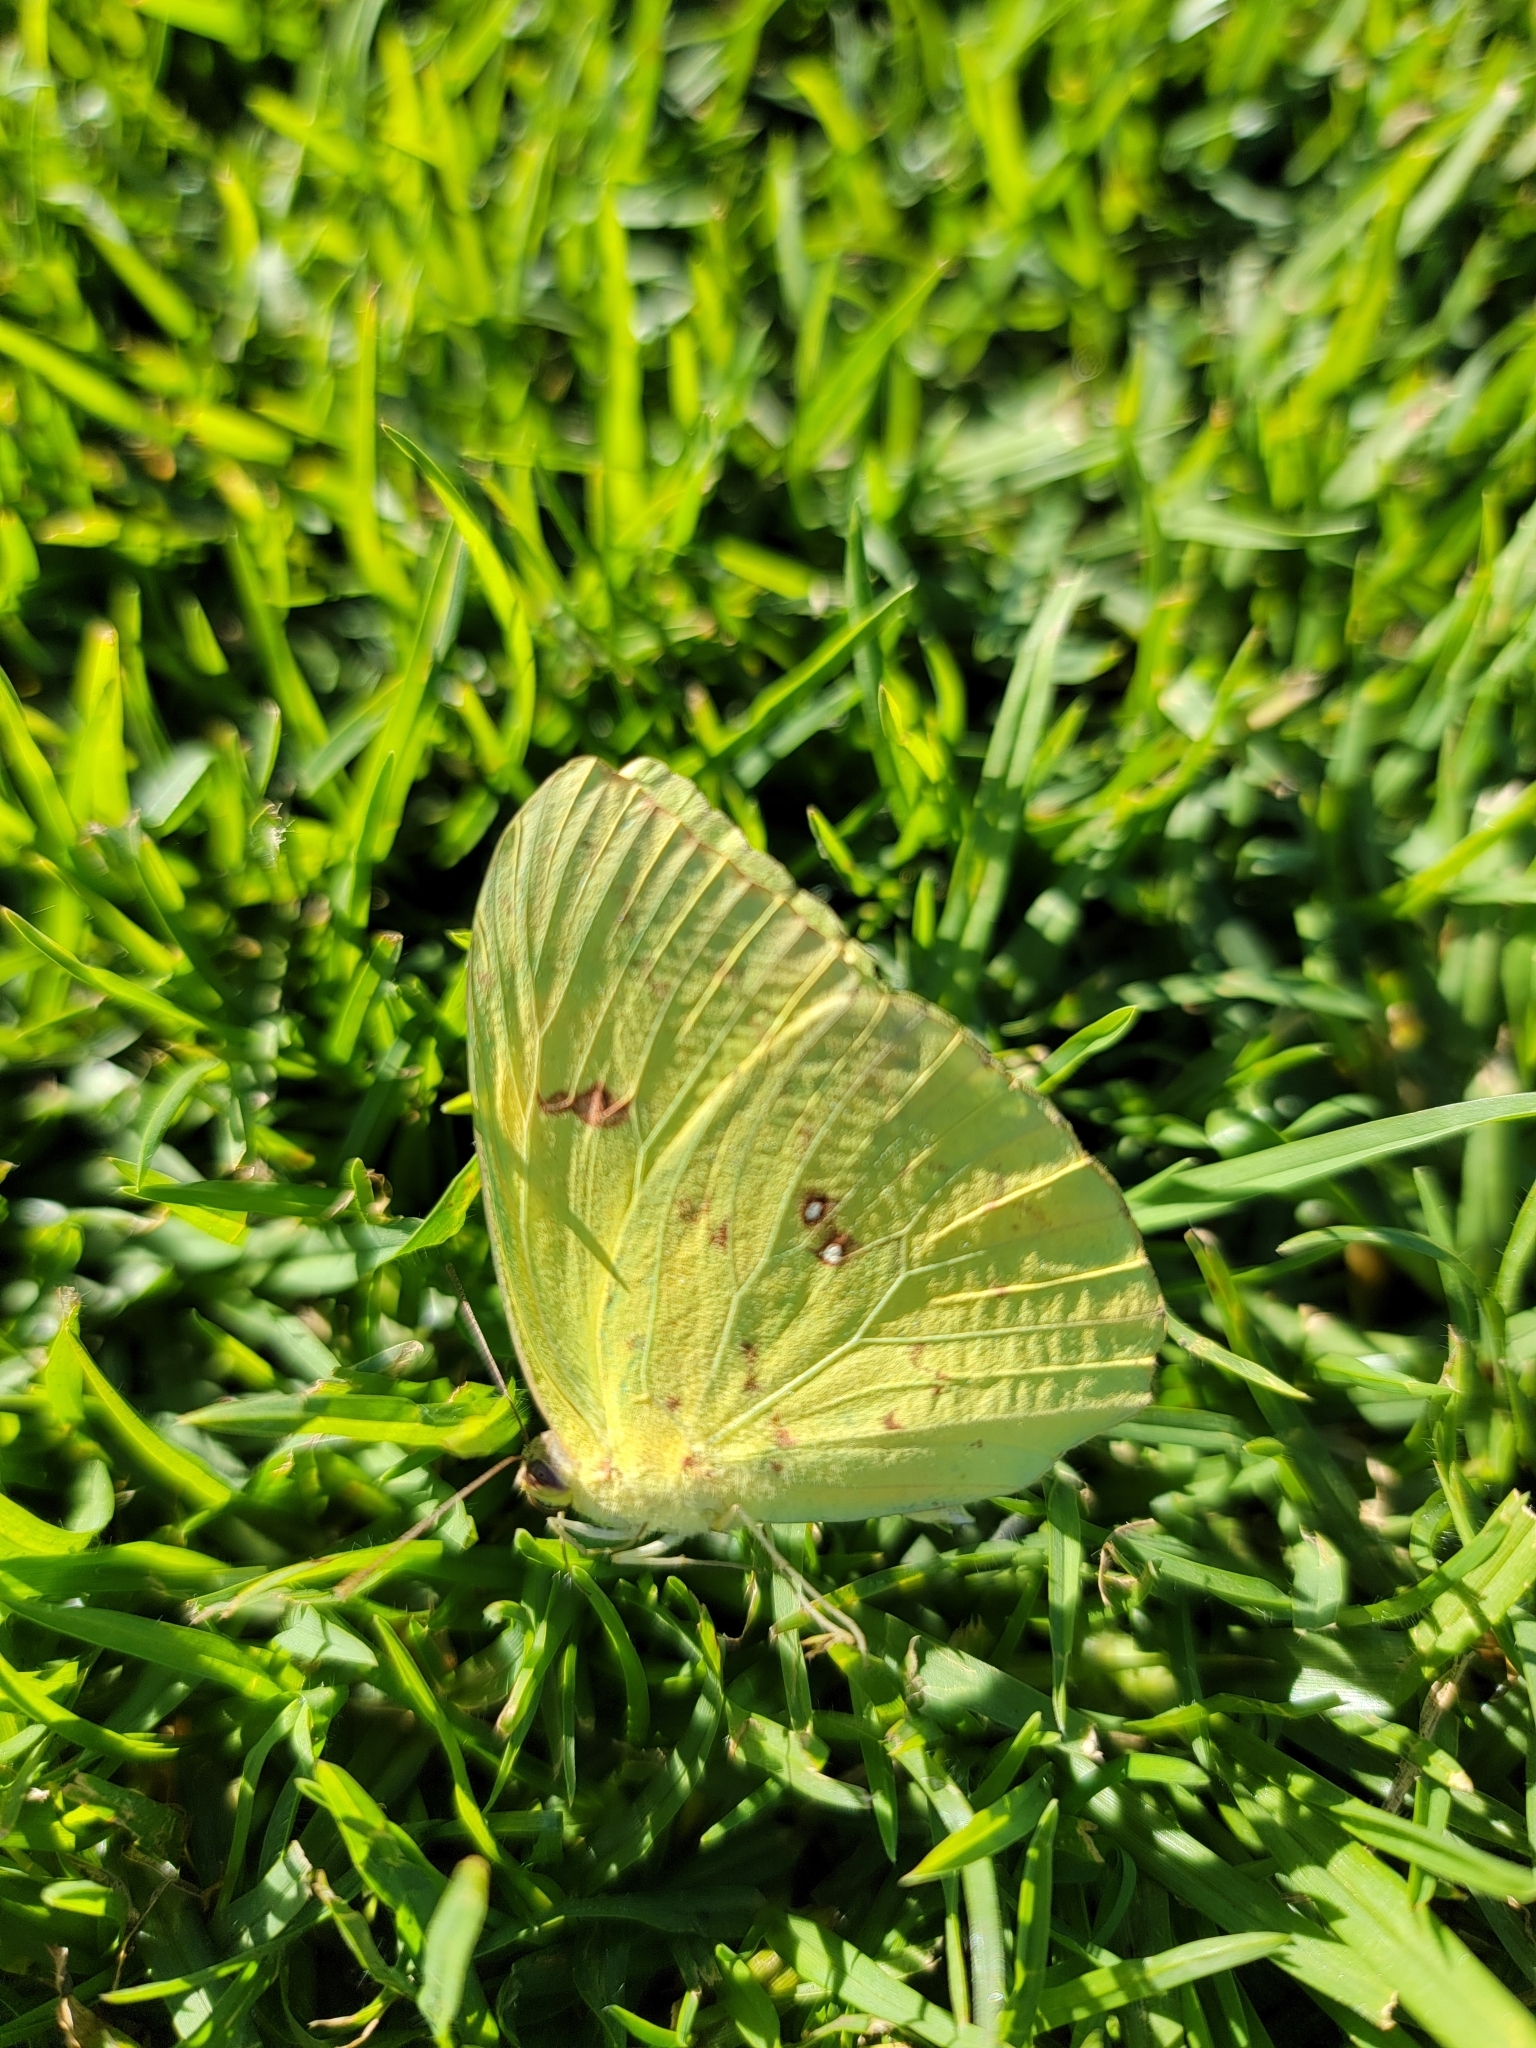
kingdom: Animalia
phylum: Arthropoda
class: Insecta
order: Lepidoptera
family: Pieridae
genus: Phoebis
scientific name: Phoebis sennae
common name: Cloudless sulphur
